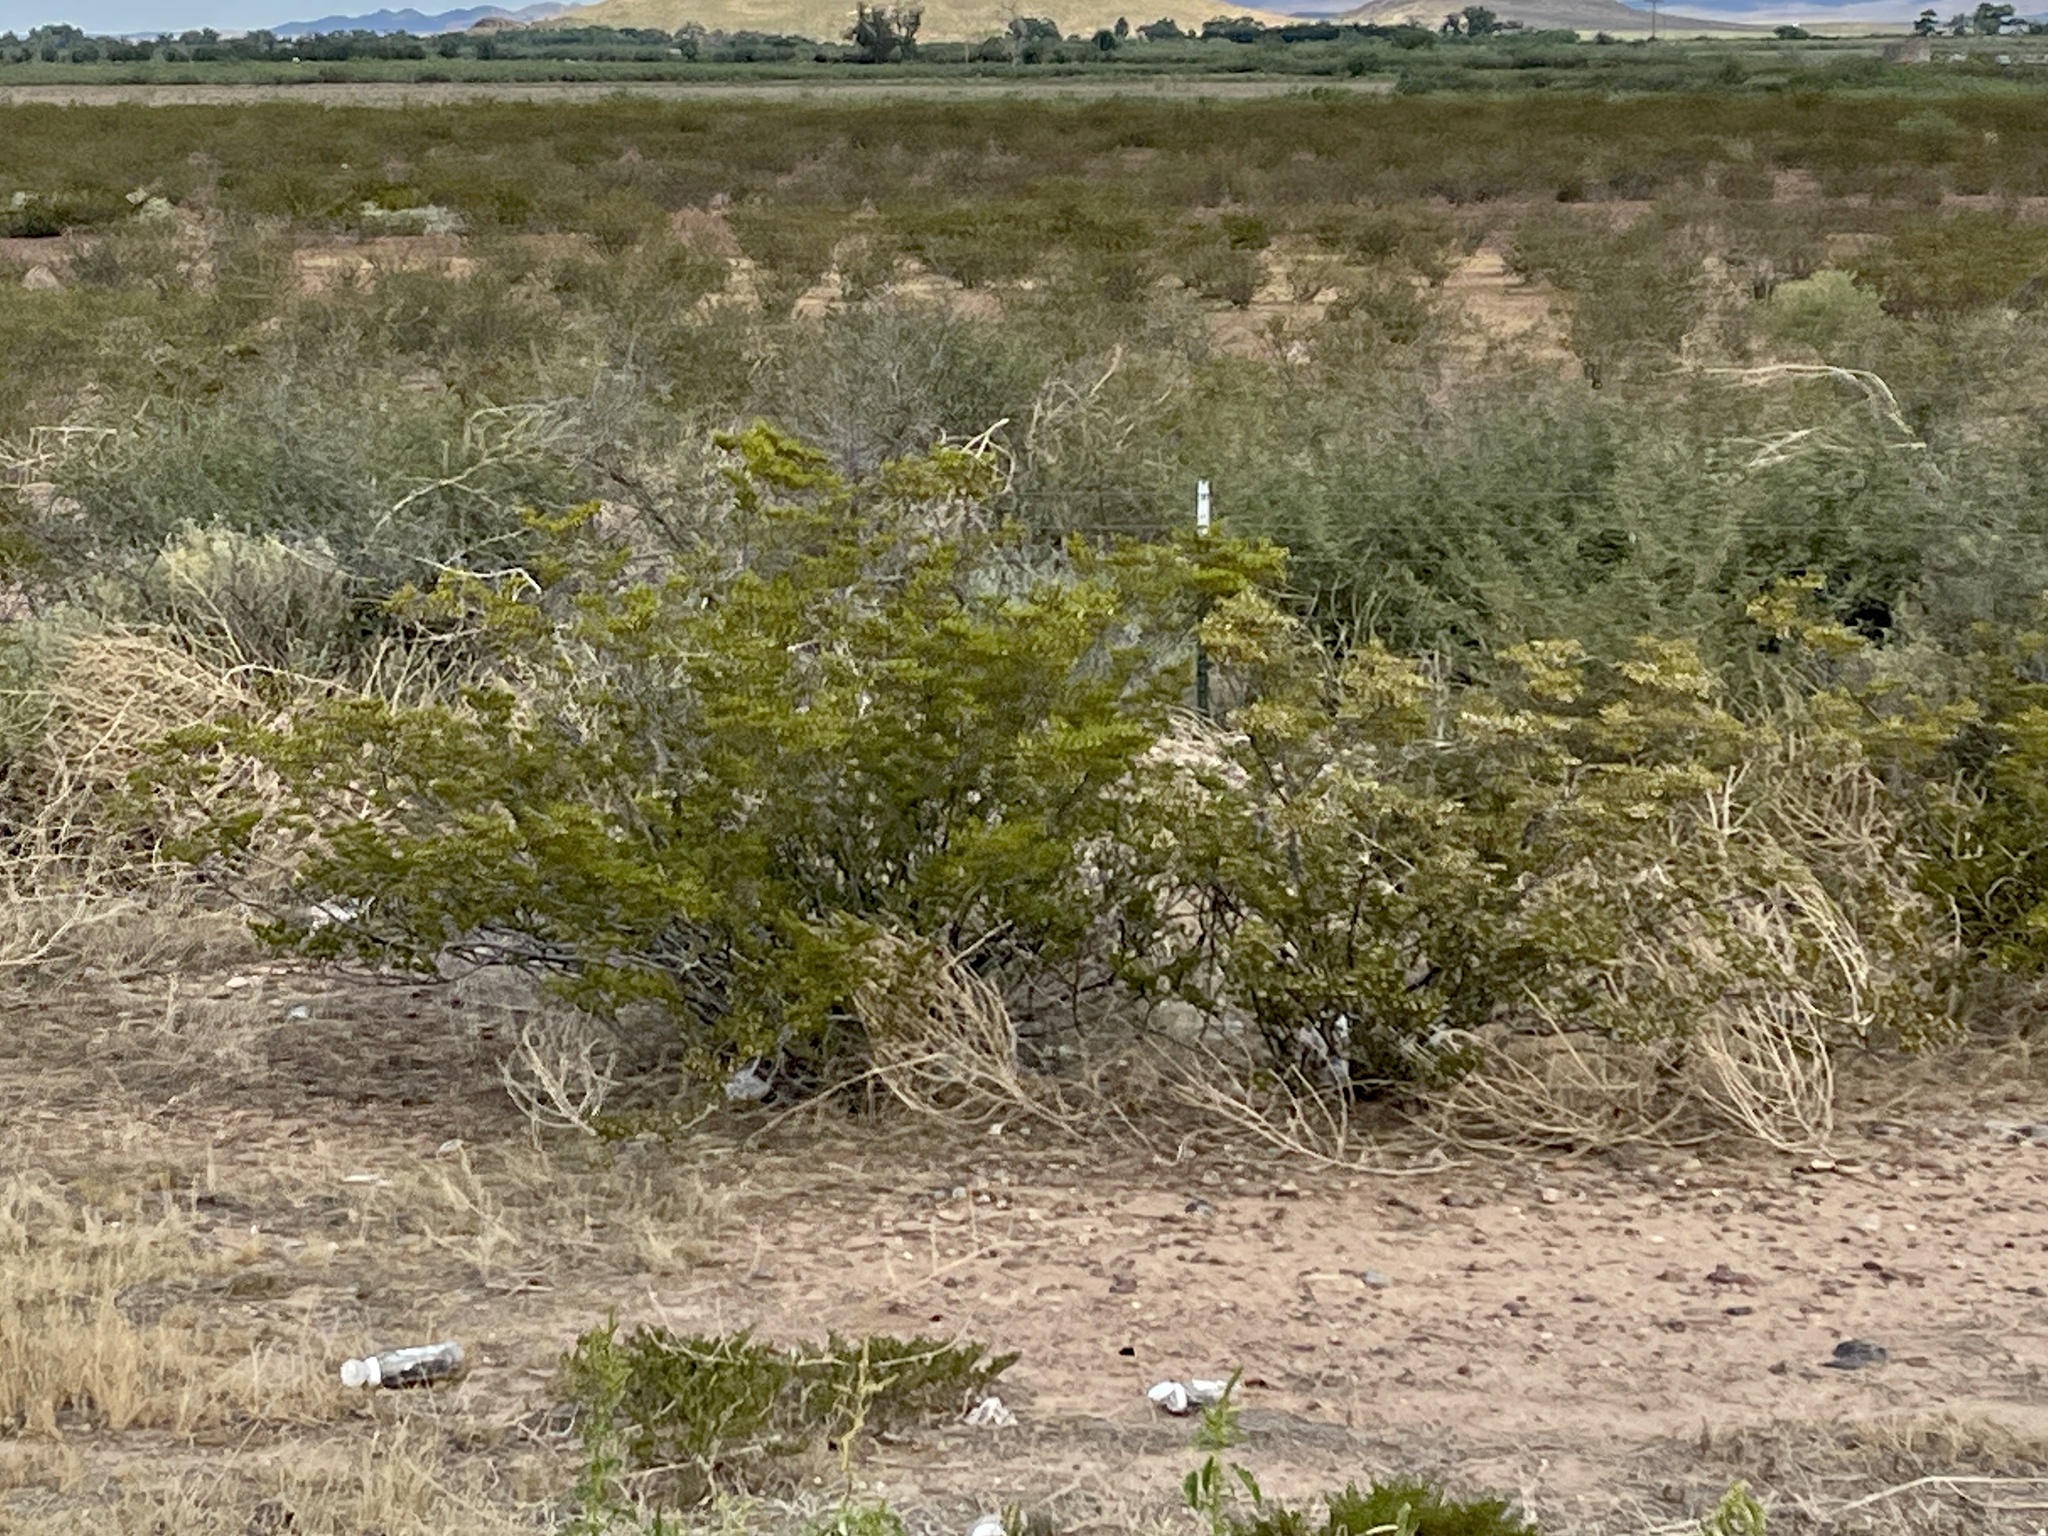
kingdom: Plantae
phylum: Tracheophyta
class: Magnoliopsida
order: Zygophyllales
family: Zygophyllaceae
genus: Larrea
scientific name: Larrea tridentata
